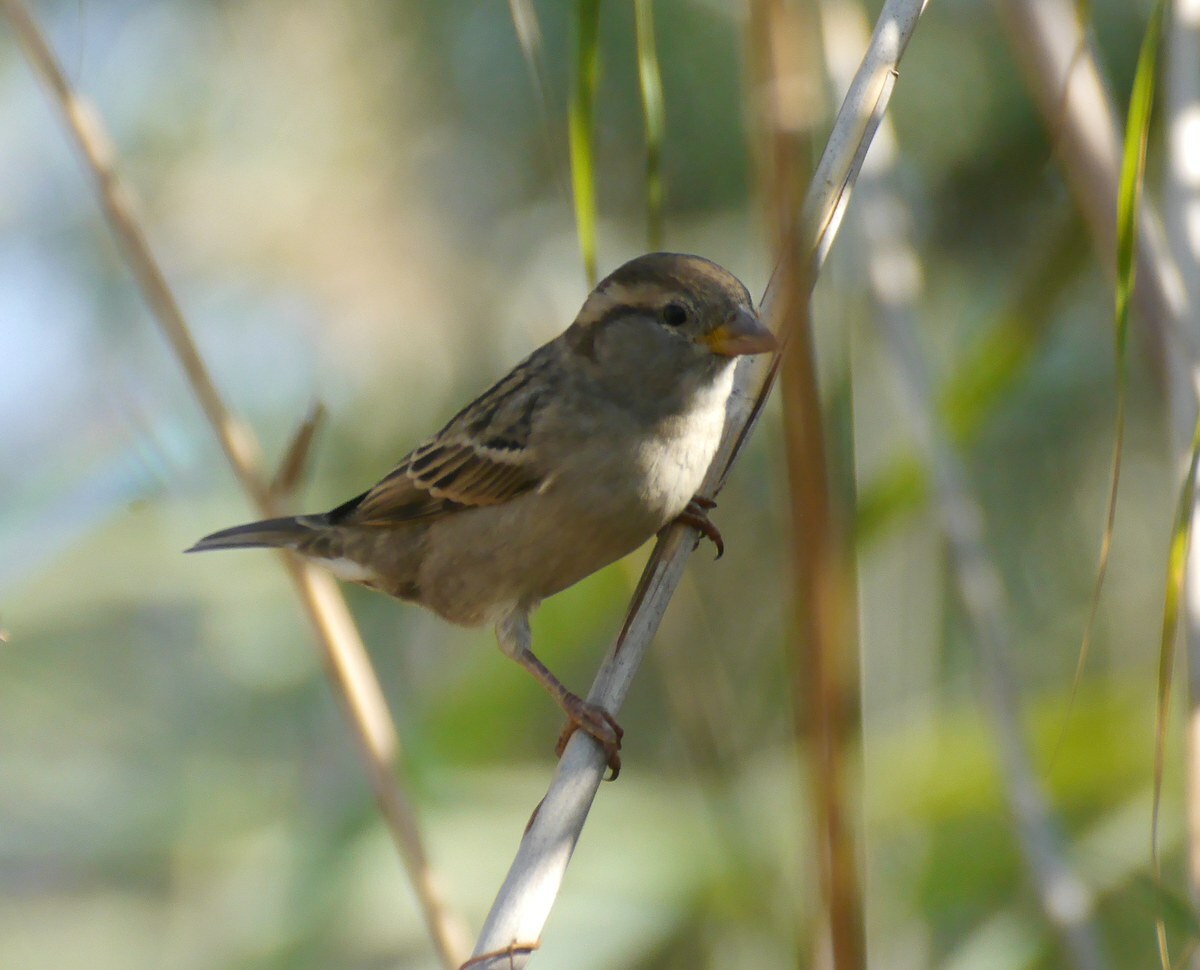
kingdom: Animalia
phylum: Chordata
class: Aves
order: Passeriformes
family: Passeridae
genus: Passer
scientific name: Passer domesticus
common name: House sparrow
